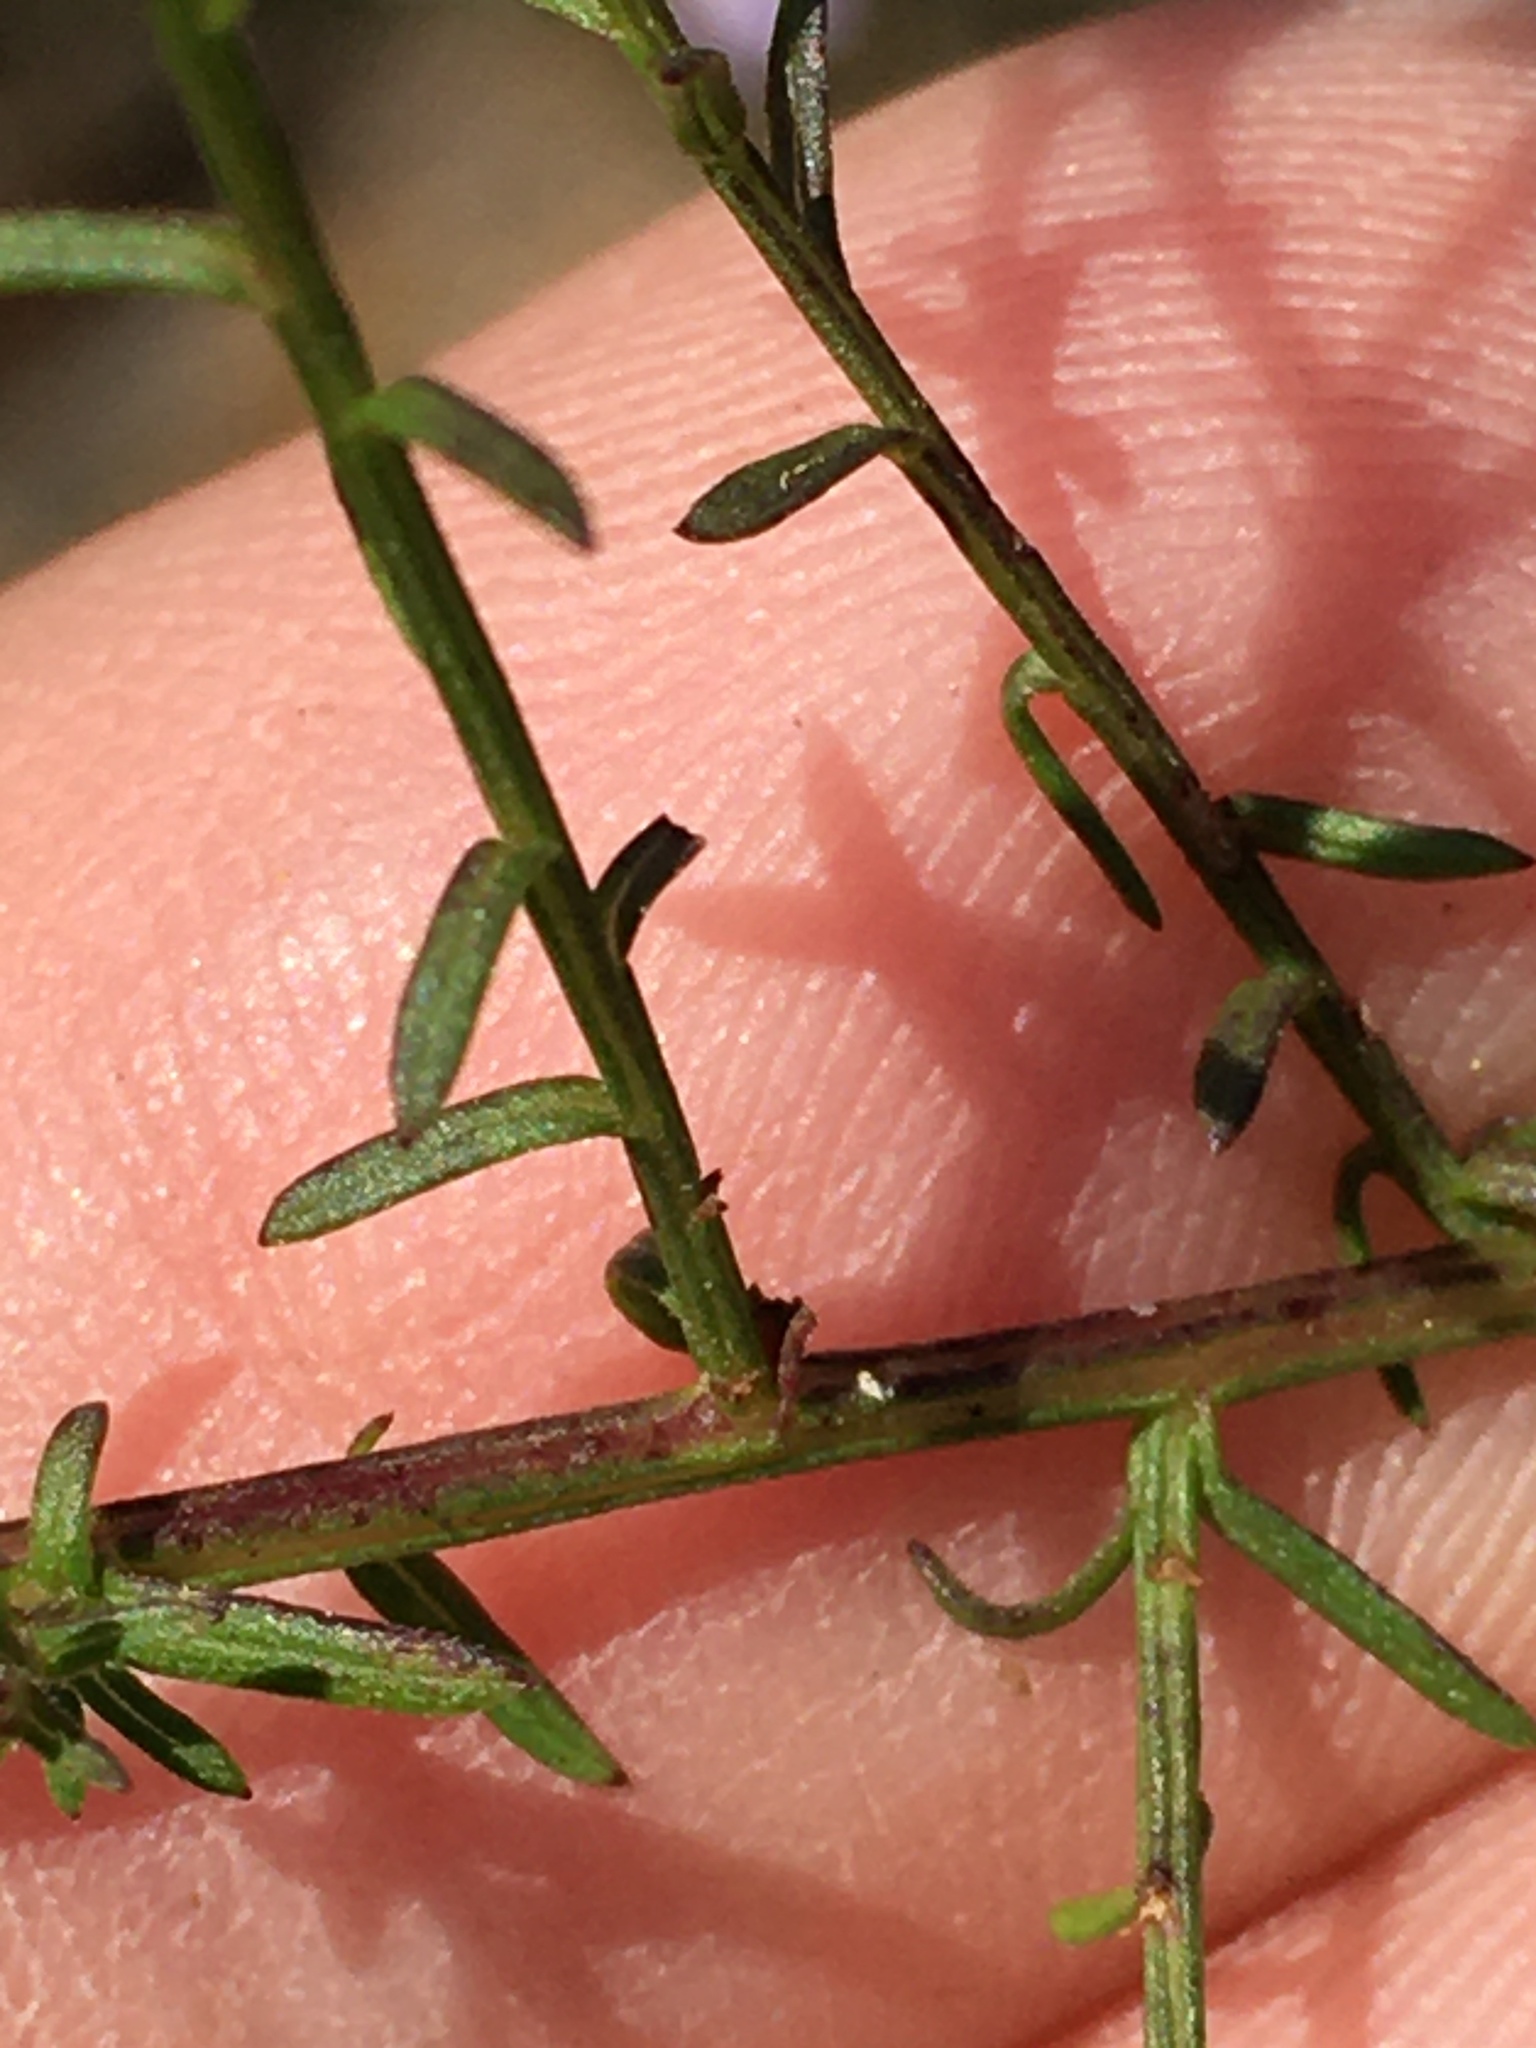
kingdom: Plantae
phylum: Tracheophyta
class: Magnoliopsida
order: Asterales
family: Asteraceae
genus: Symphyotrichum
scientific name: Symphyotrichum dumosum
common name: Bushy aster
